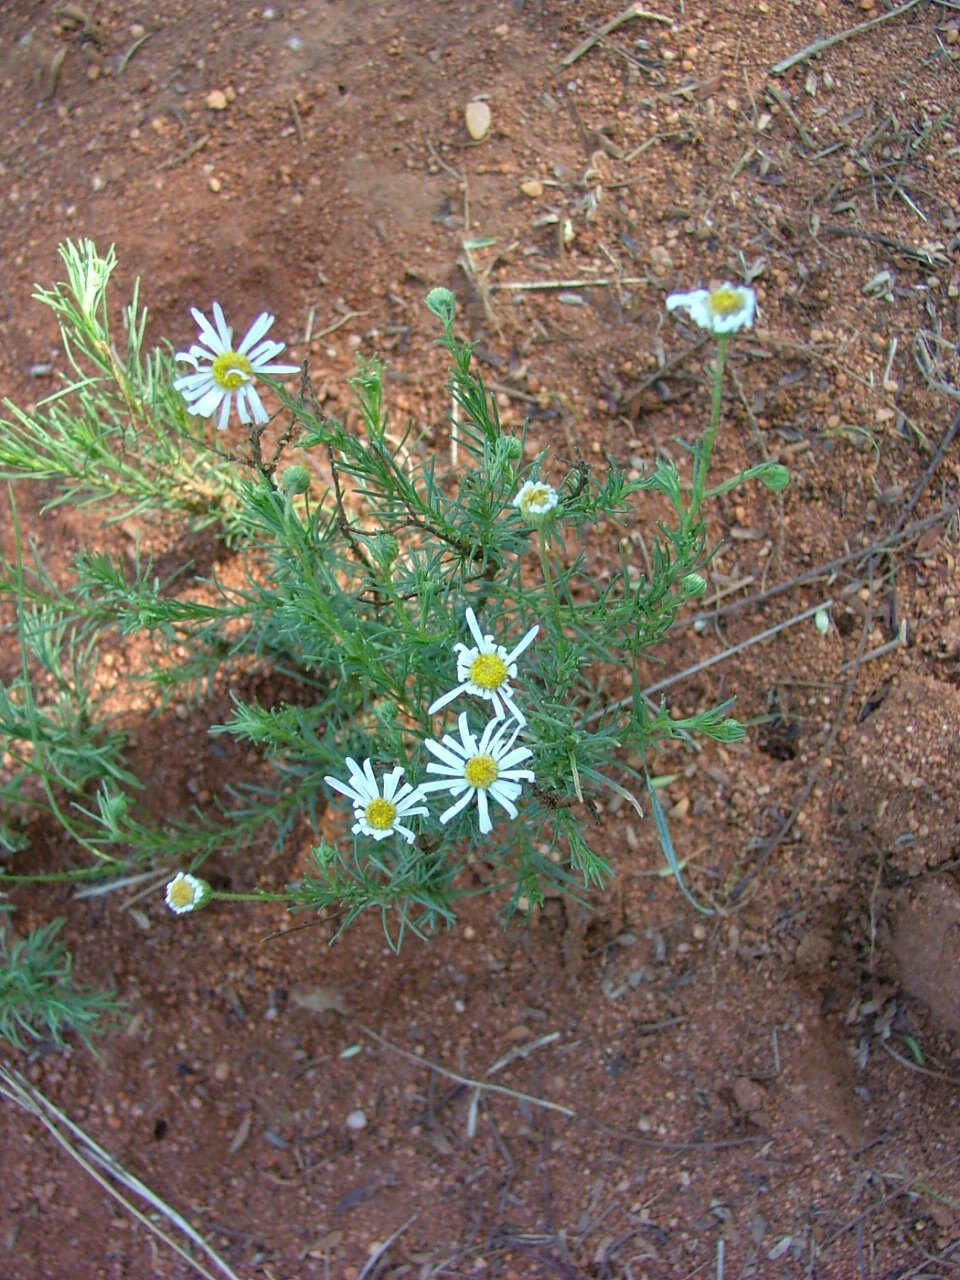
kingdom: Plantae
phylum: Tracheophyta
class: Magnoliopsida
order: Asterales
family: Asteraceae
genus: Felicia
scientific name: Felicia muricata
